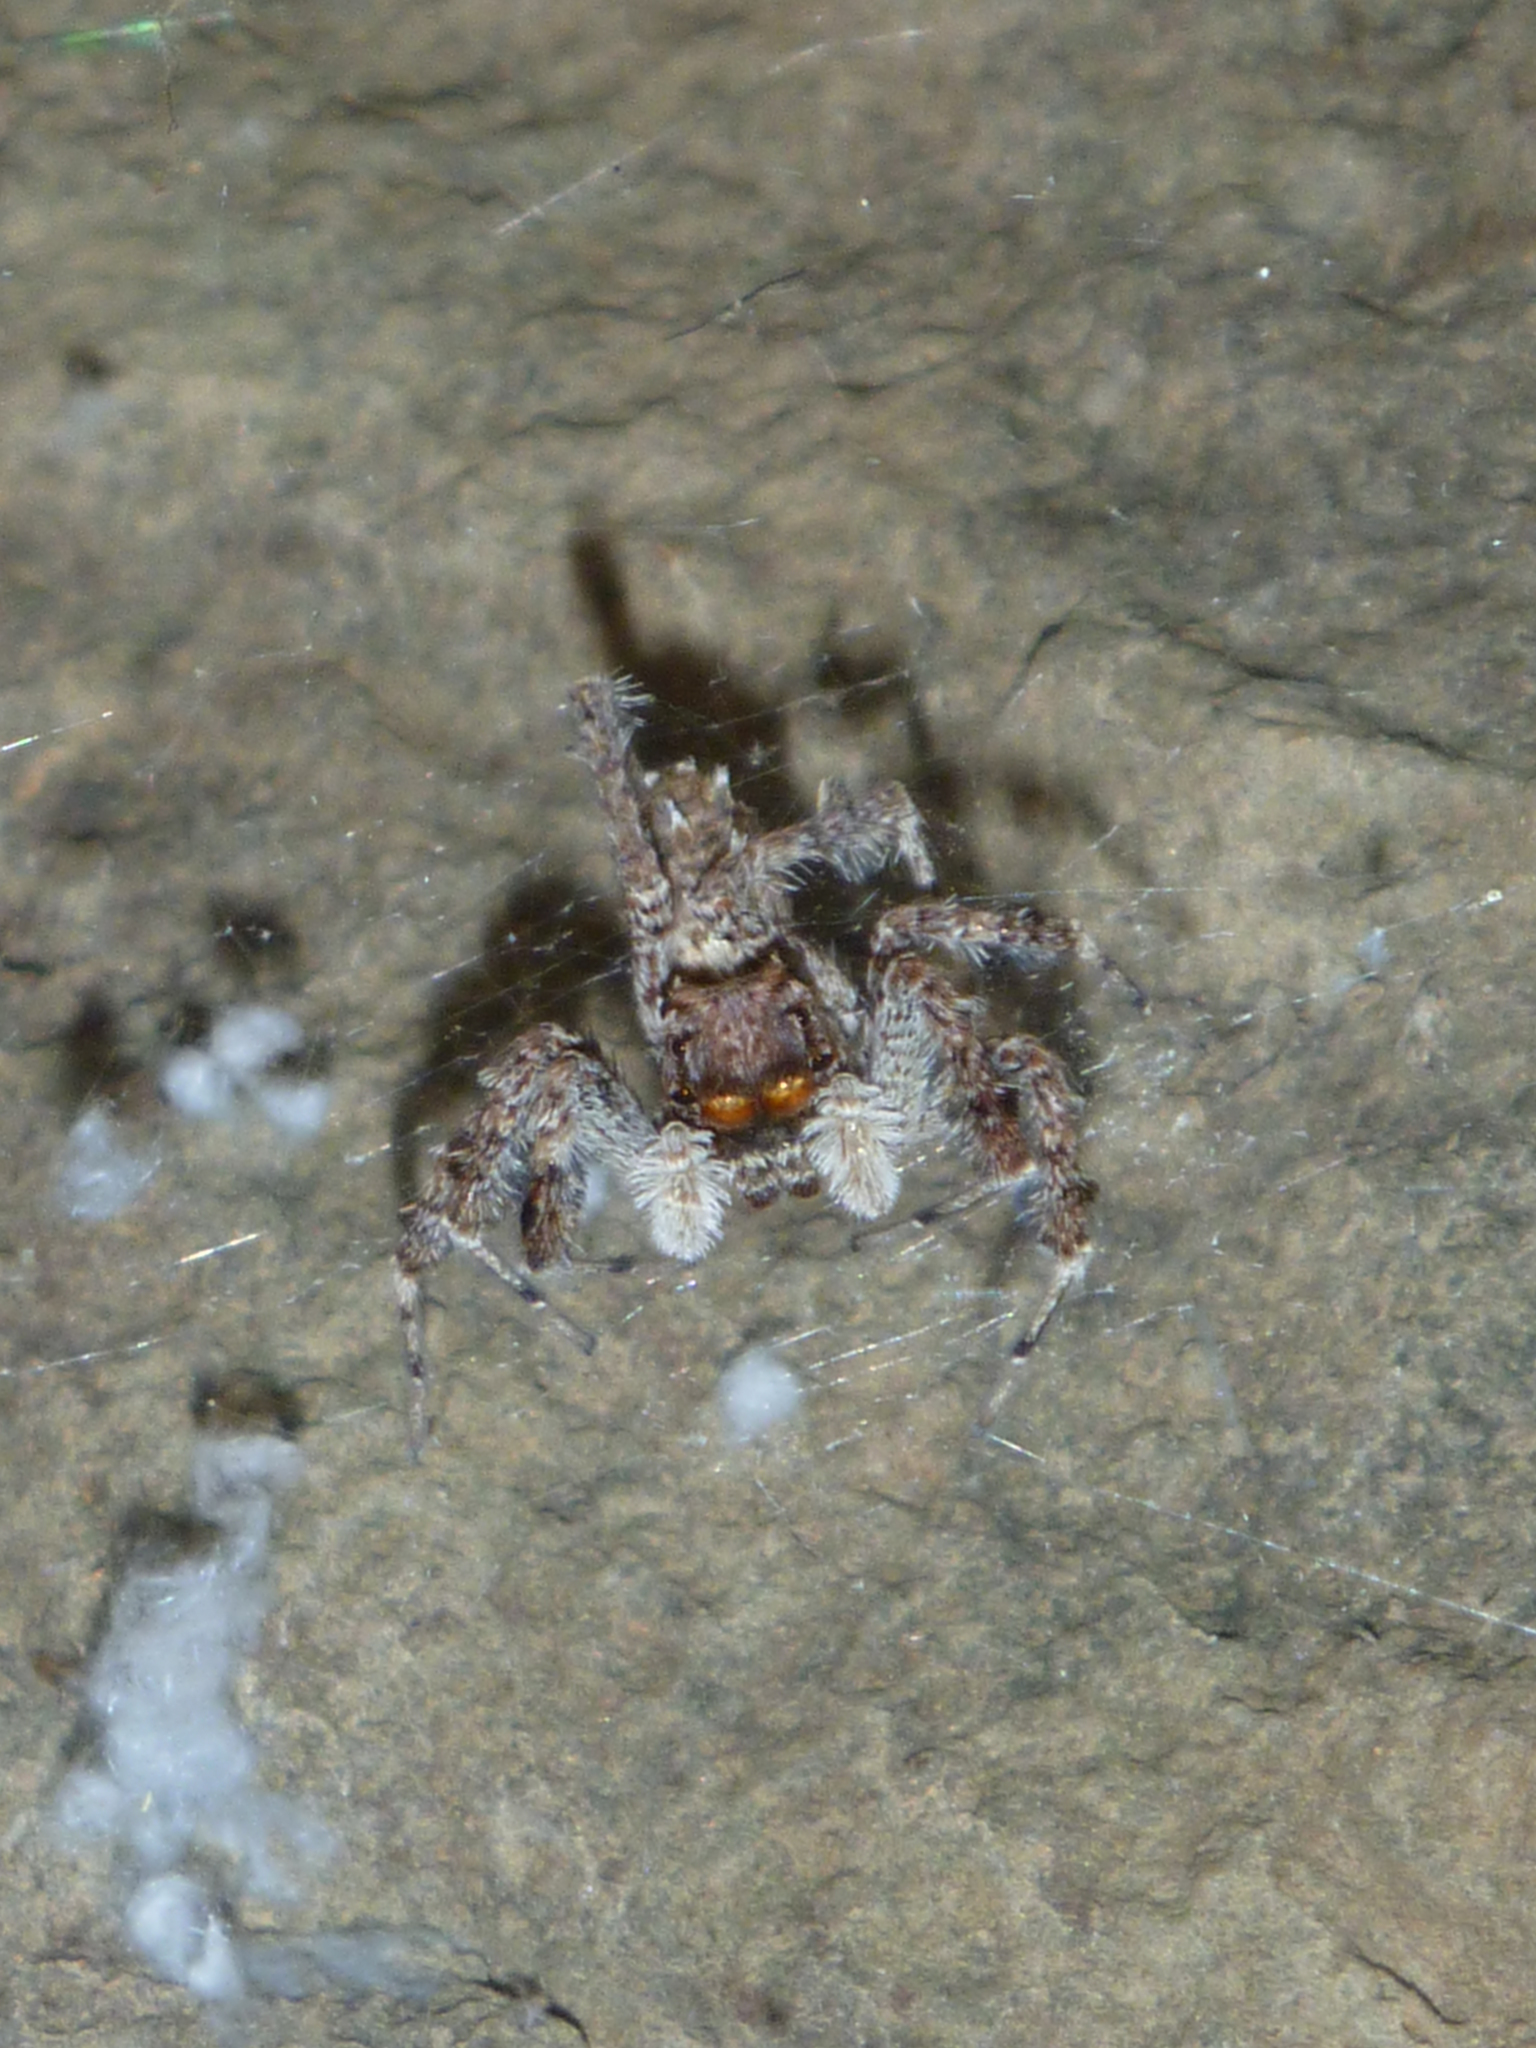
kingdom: Animalia
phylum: Arthropoda
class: Arachnida
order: Araneae
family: Salticidae
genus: Portia
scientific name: Portia fimbriata
